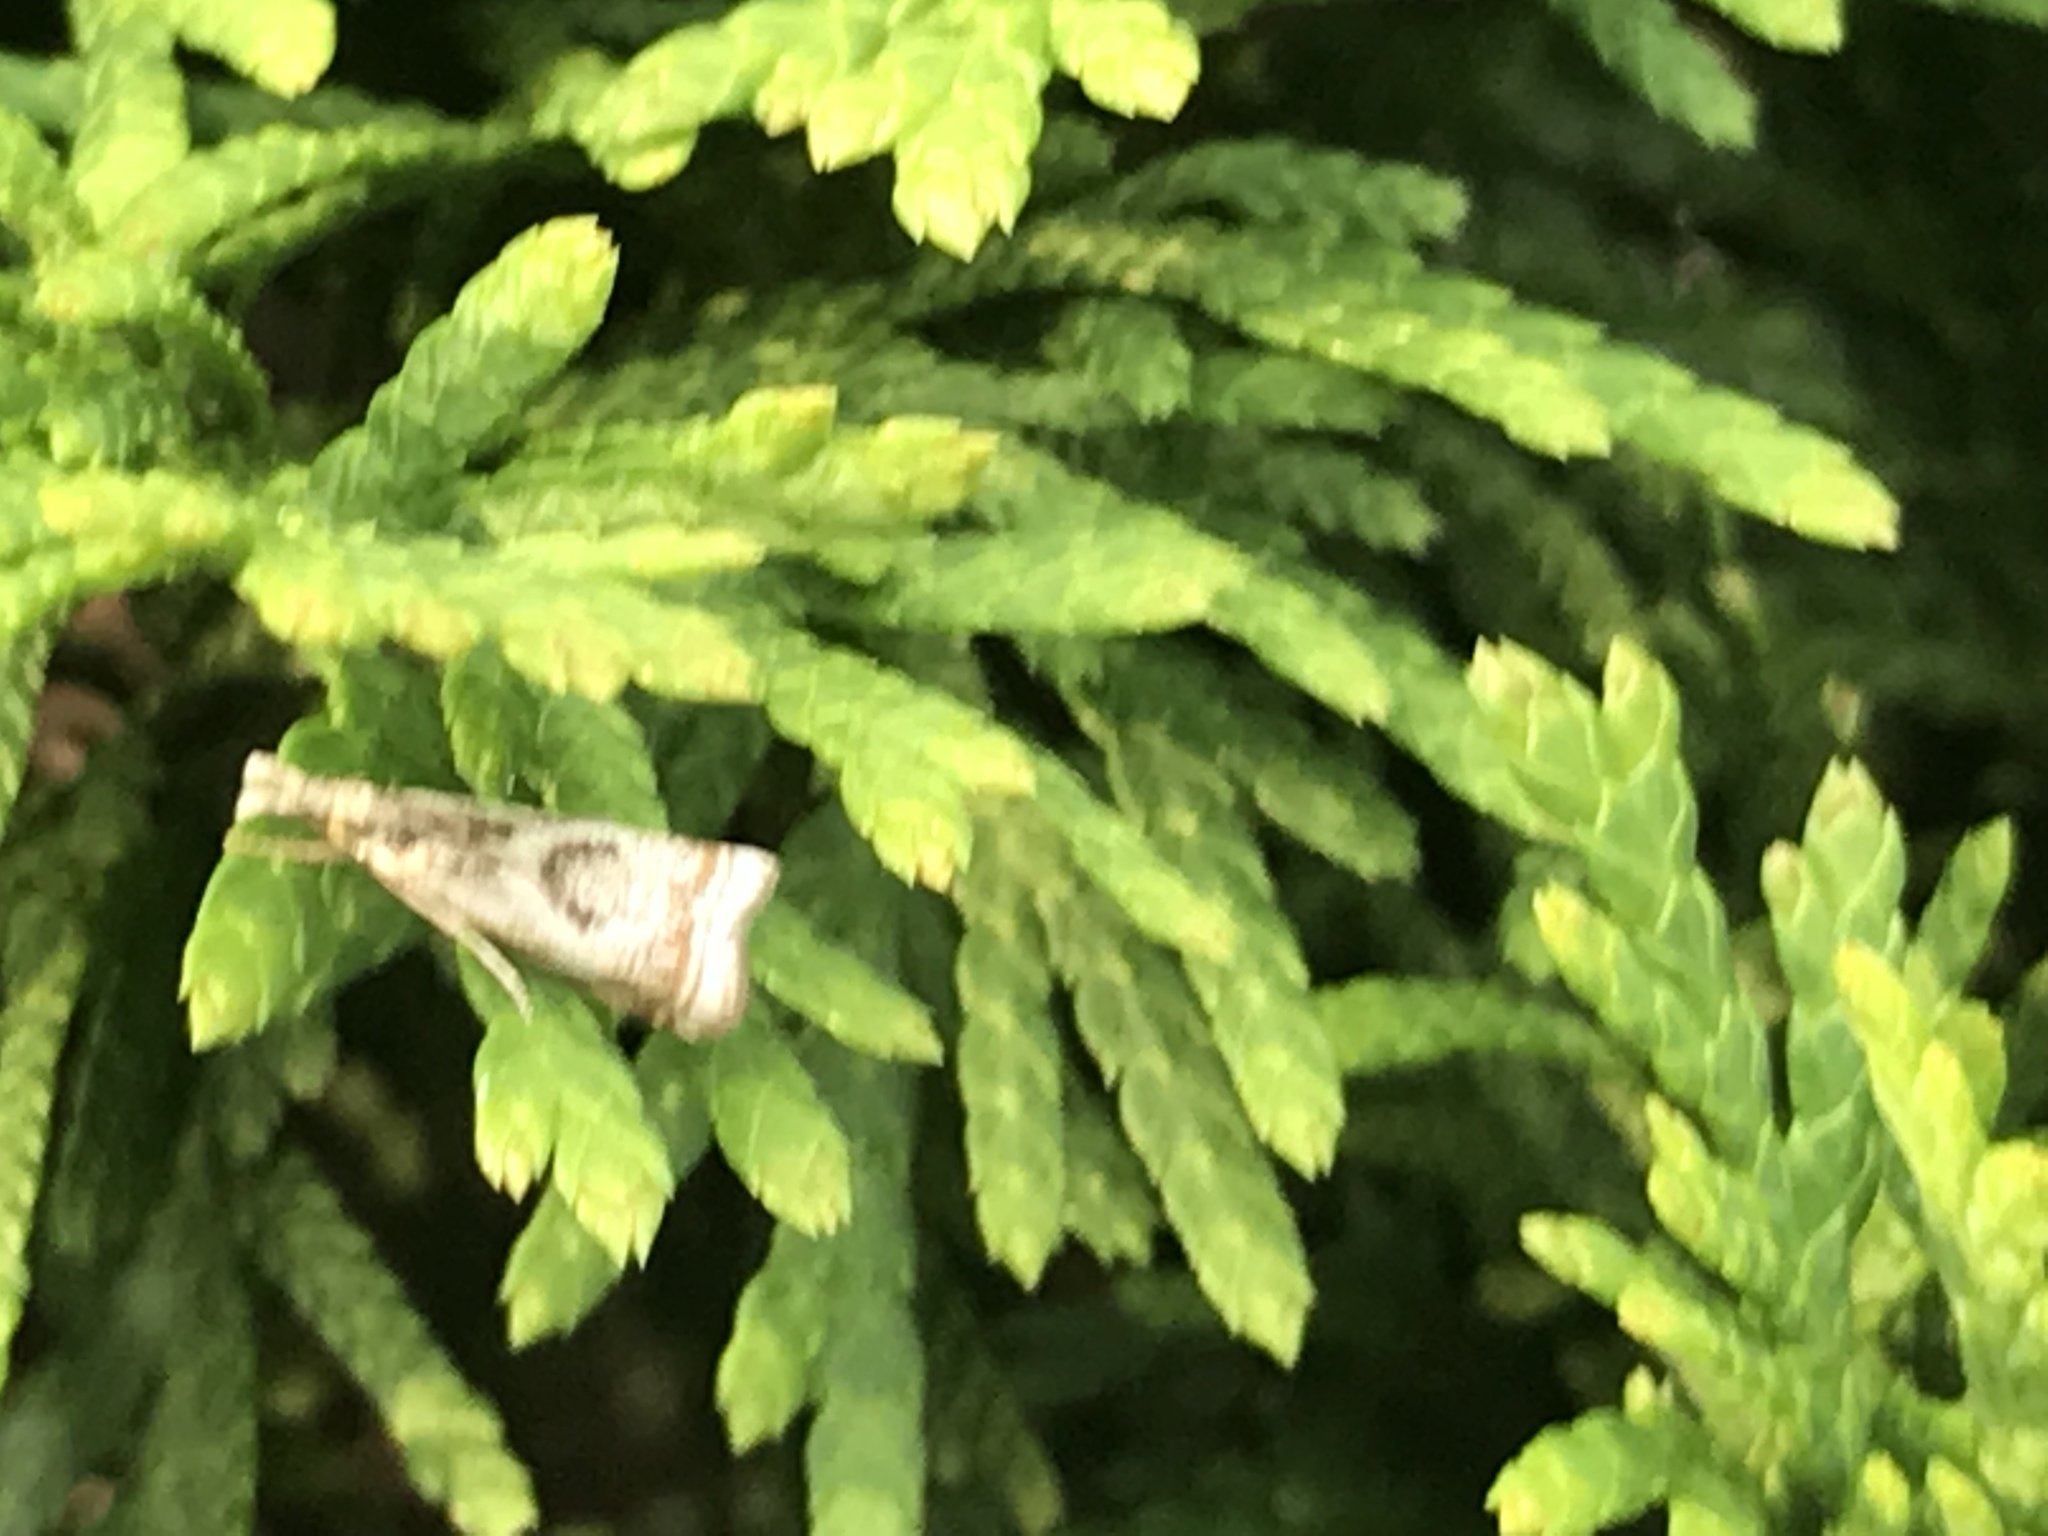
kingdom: Animalia
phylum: Arthropoda
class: Insecta
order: Lepidoptera
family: Crambidae
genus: Microcrambus
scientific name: Microcrambus elegans
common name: Elegant grass-veneer
